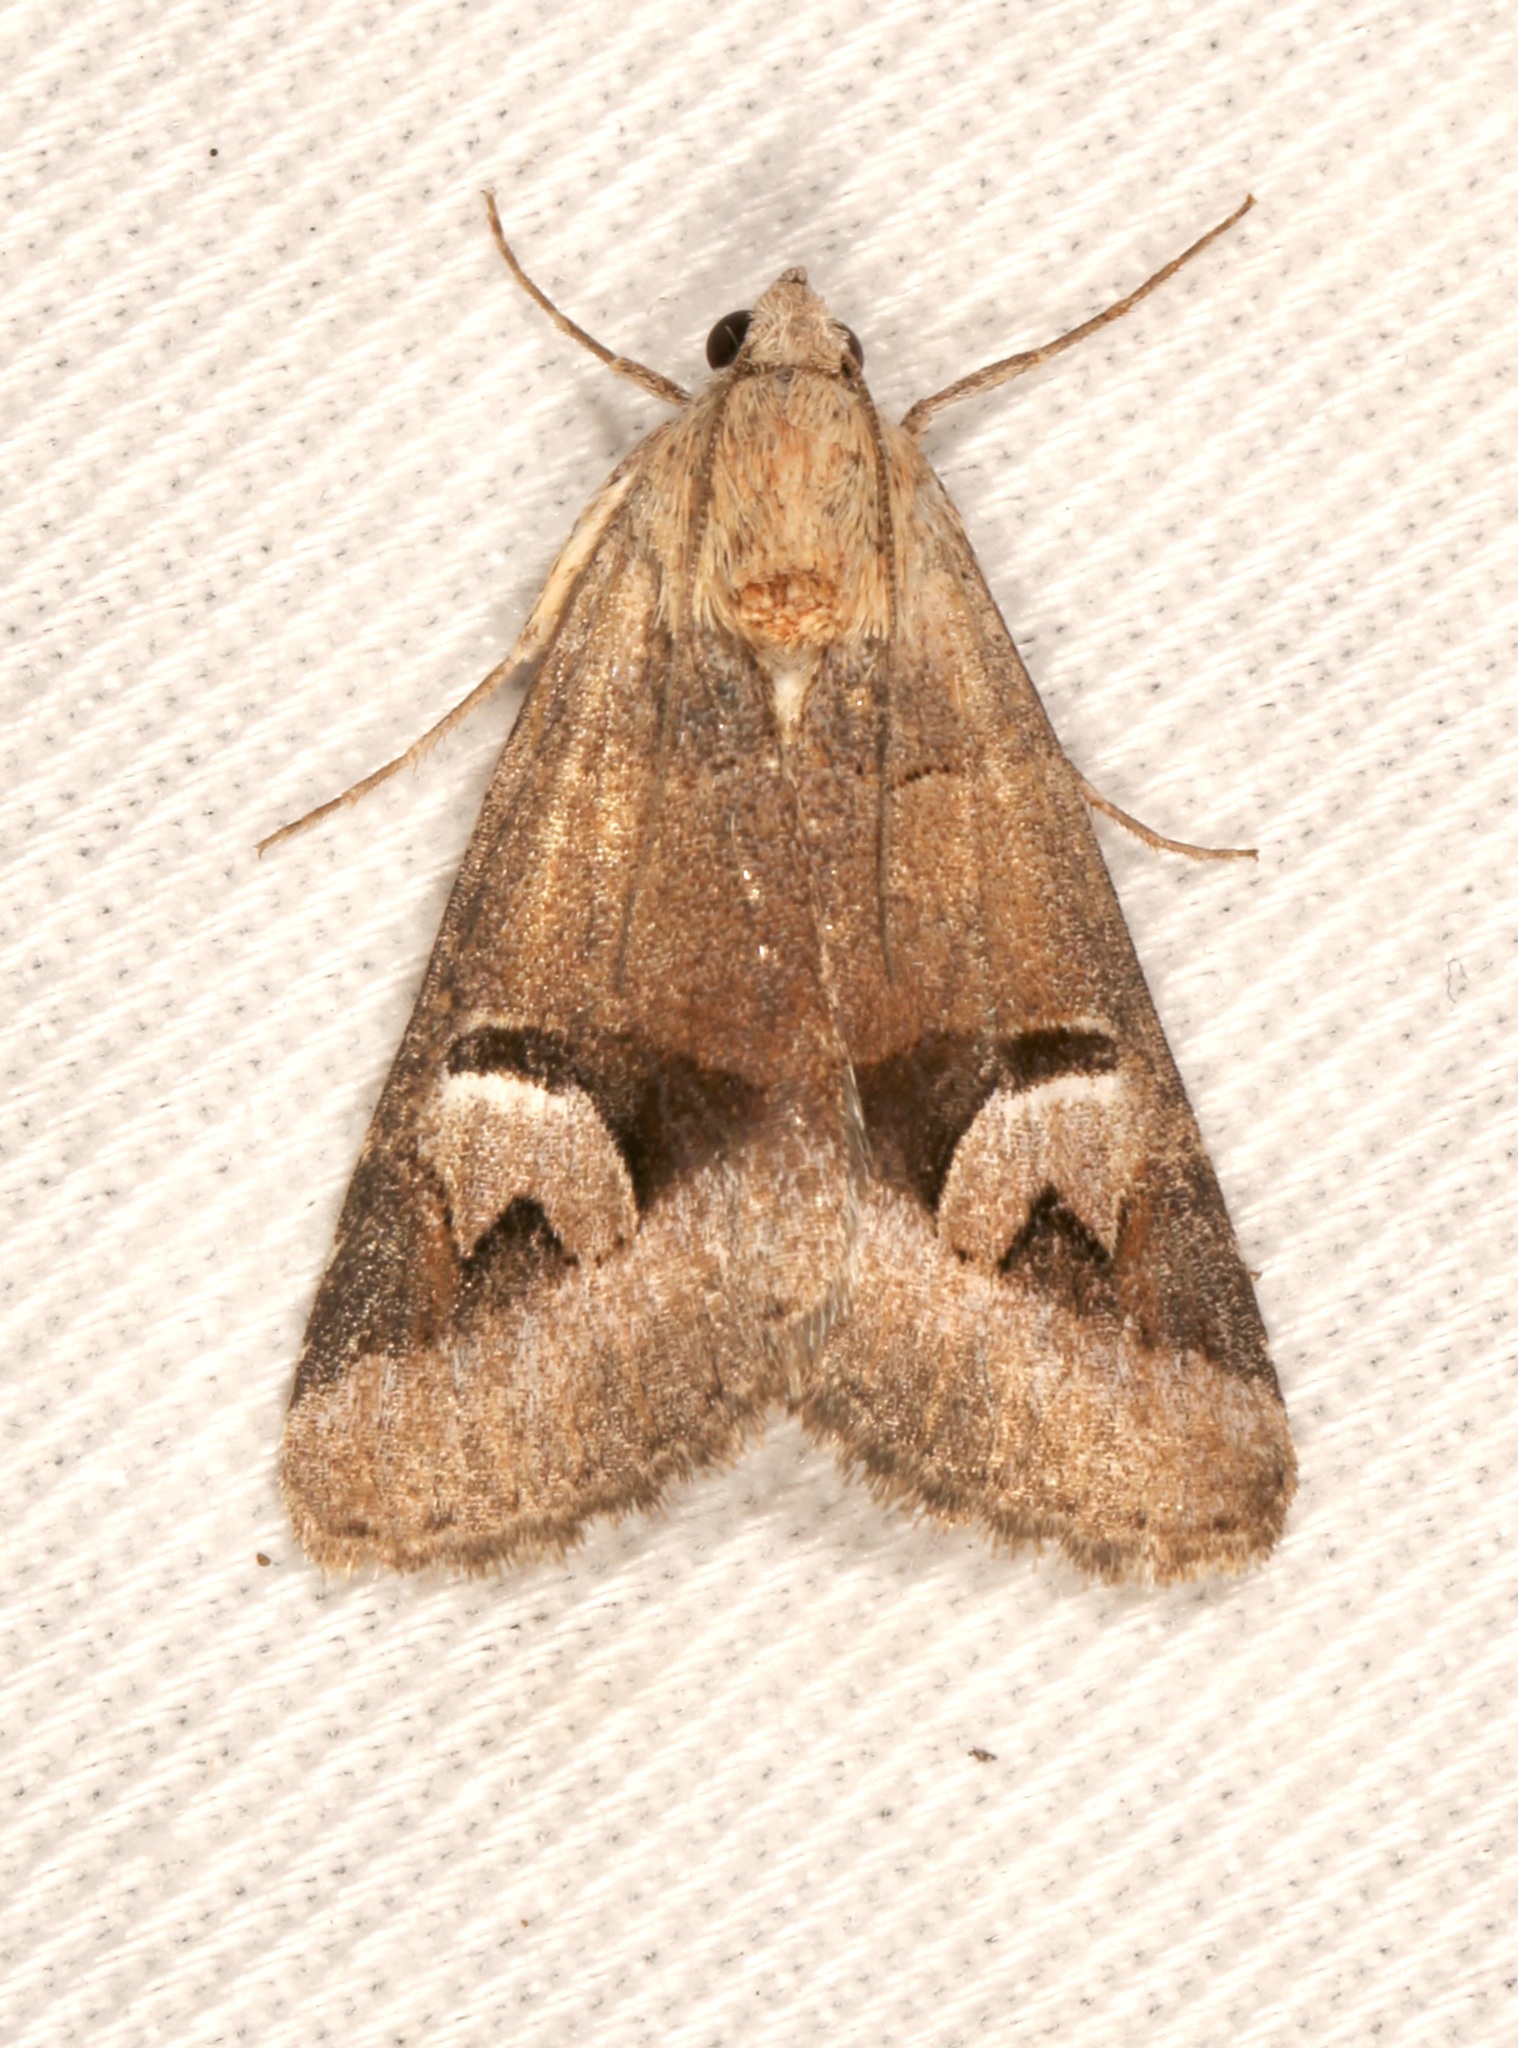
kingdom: Animalia
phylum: Arthropoda
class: Insecta
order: Lepidoptera
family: Erebidae
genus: Drasteria
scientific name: Drasteria perplexa
